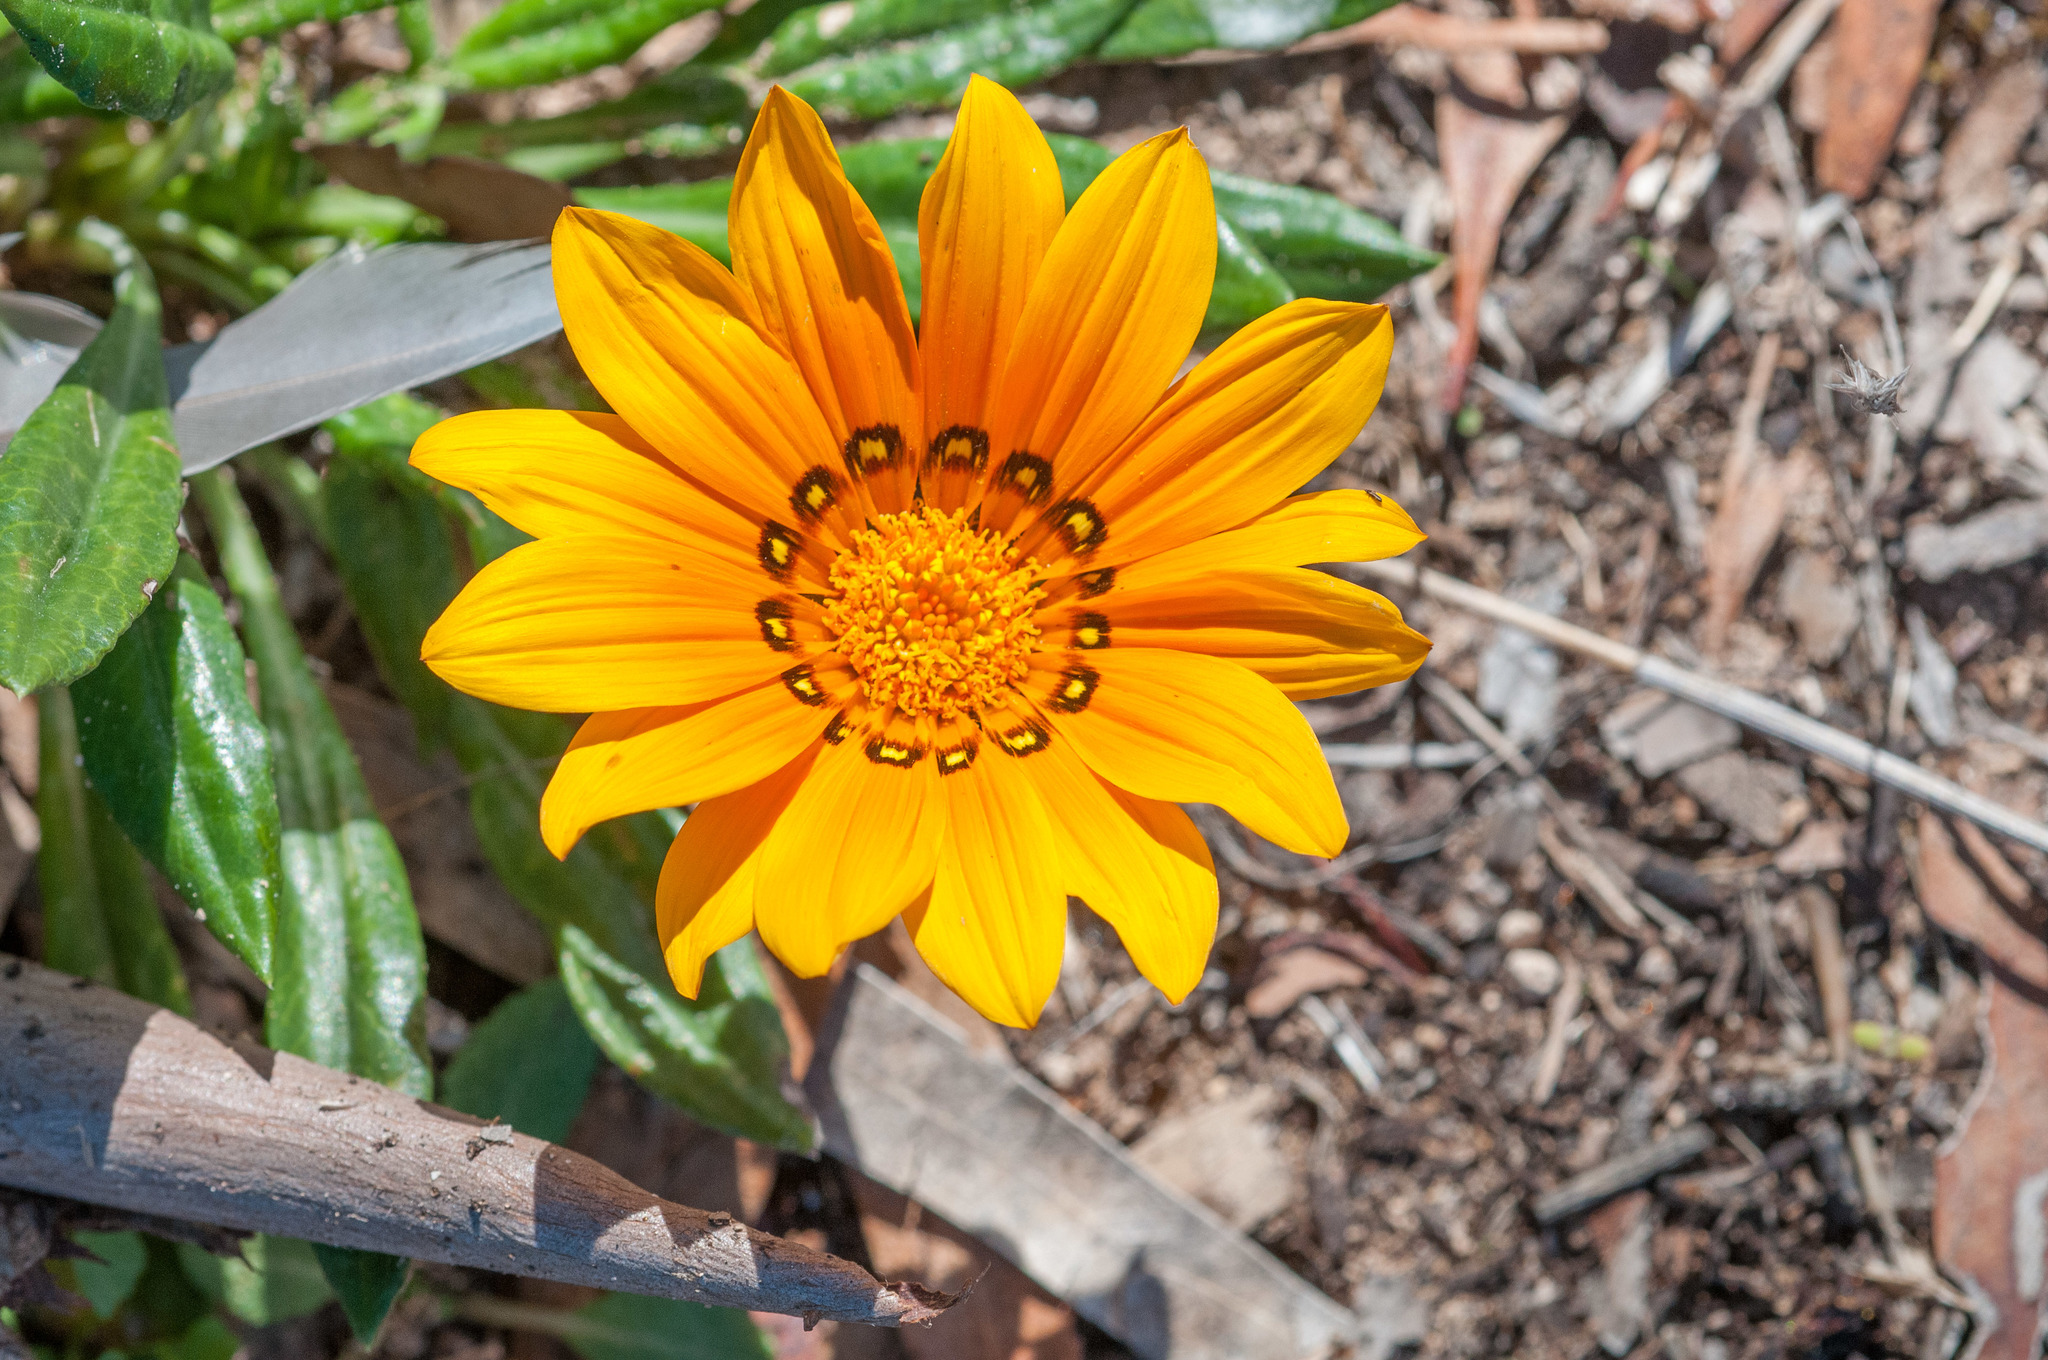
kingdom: Plantae
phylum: Tracheophyta
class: Magnoliopsida
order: Asterales
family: Asteraceae
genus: Gazania
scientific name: Gazania splendens
